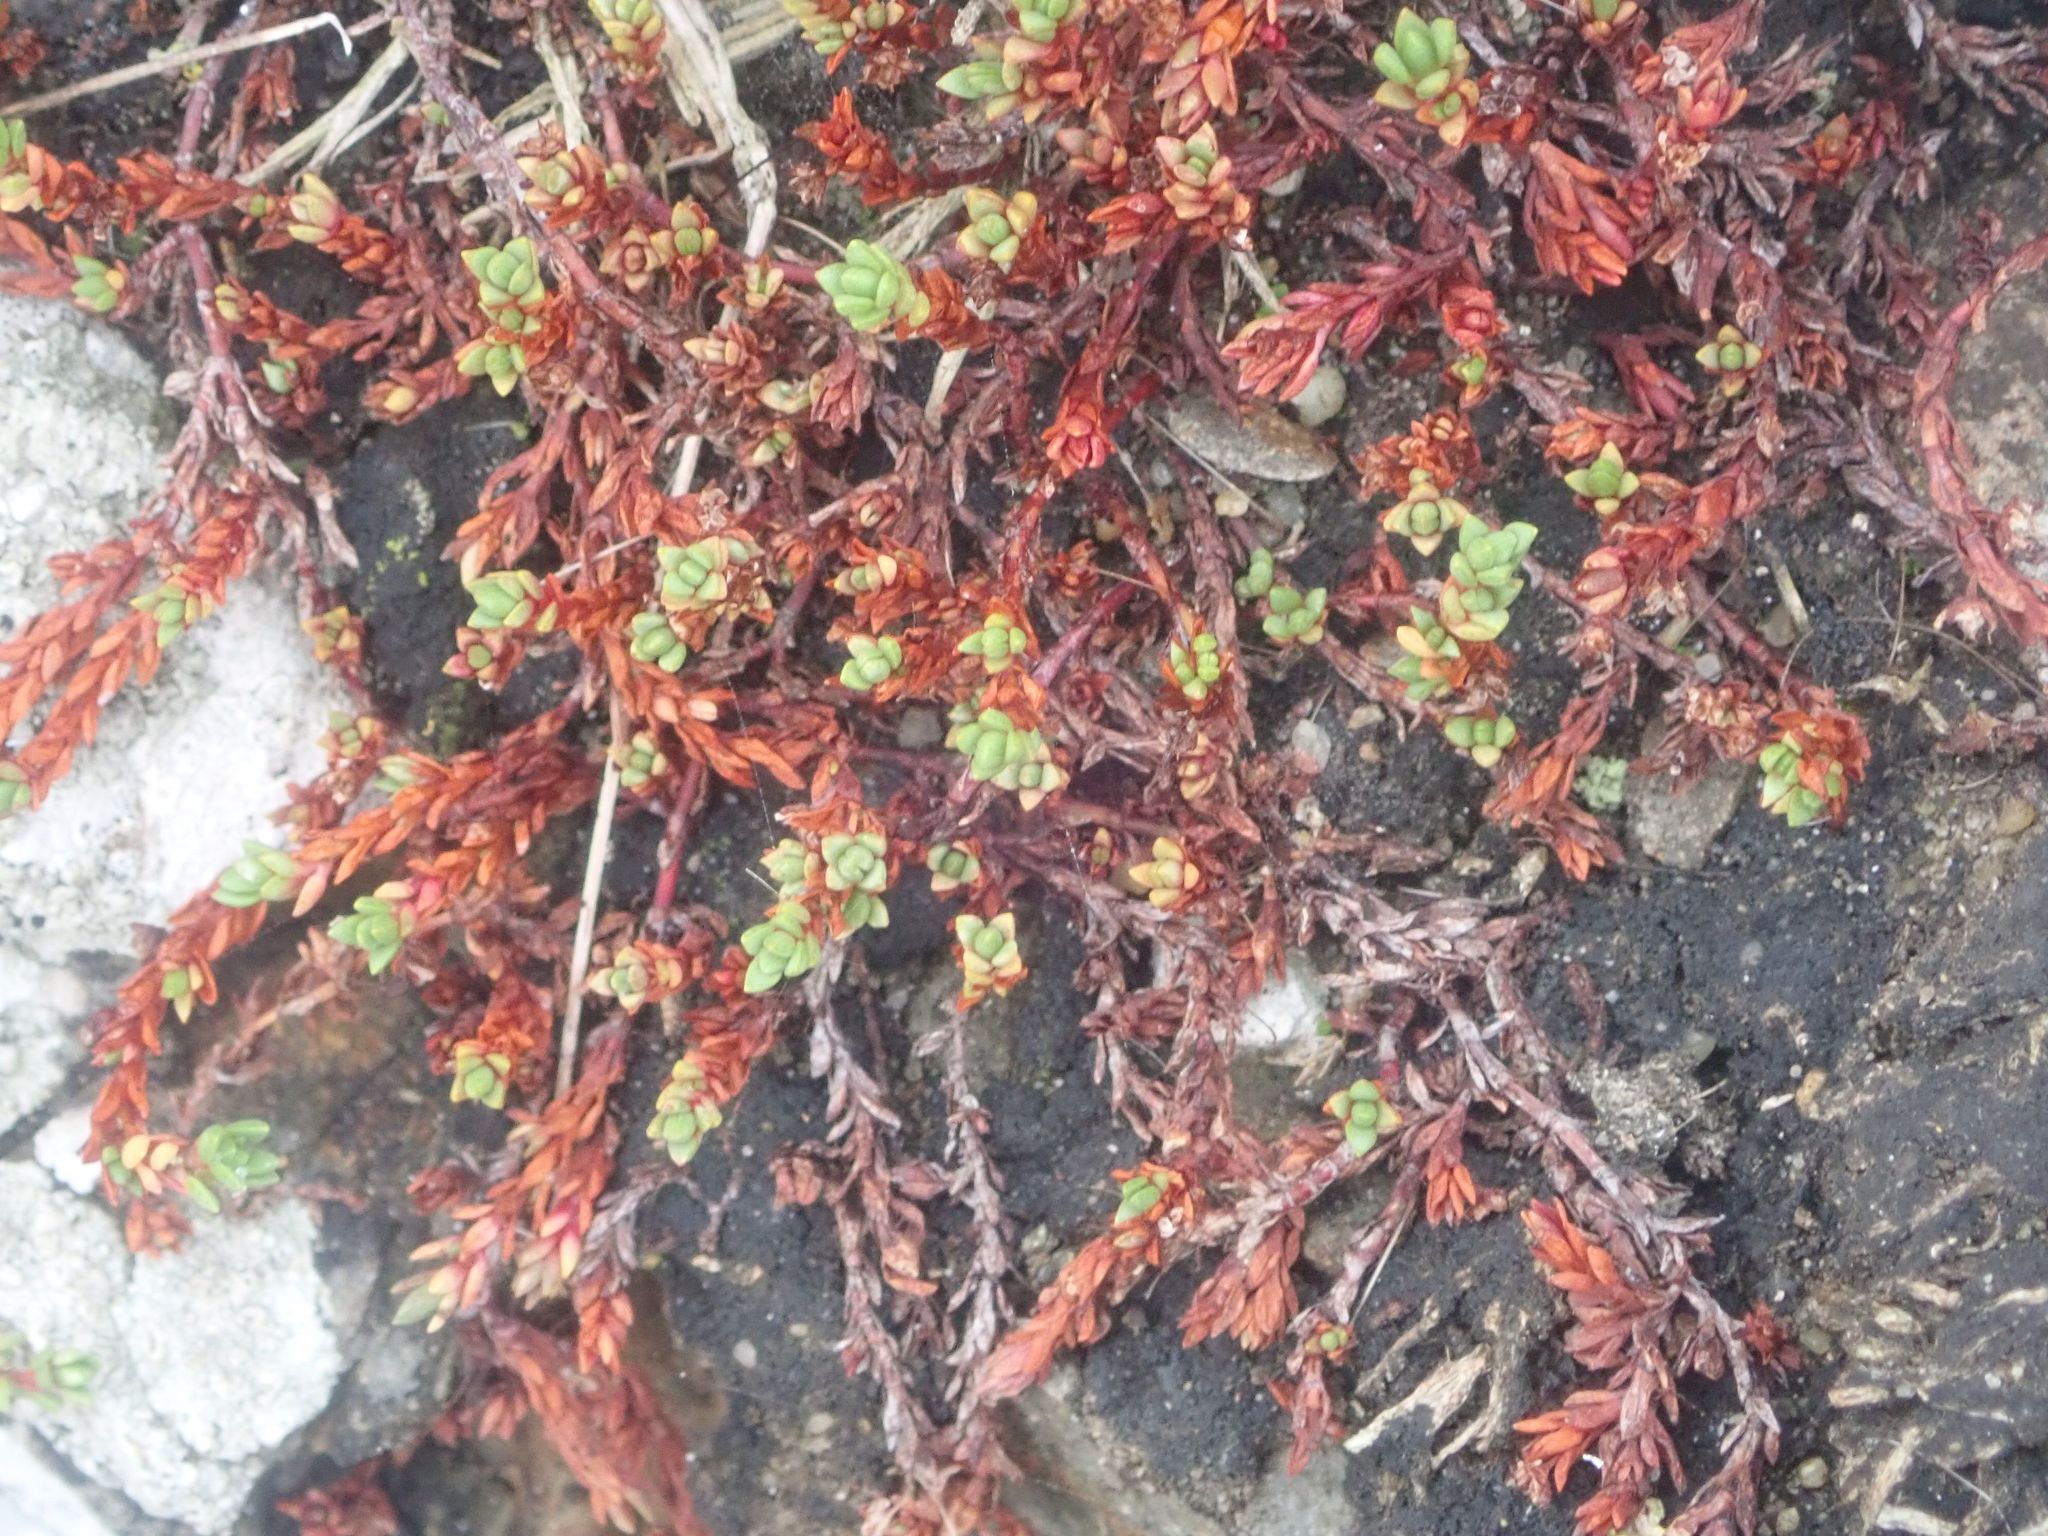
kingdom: Plantae
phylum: Tracheophyta
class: Magnoliopsida
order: Saxifragales
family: Crassulaceae
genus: Crassula
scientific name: Crassula moschata
